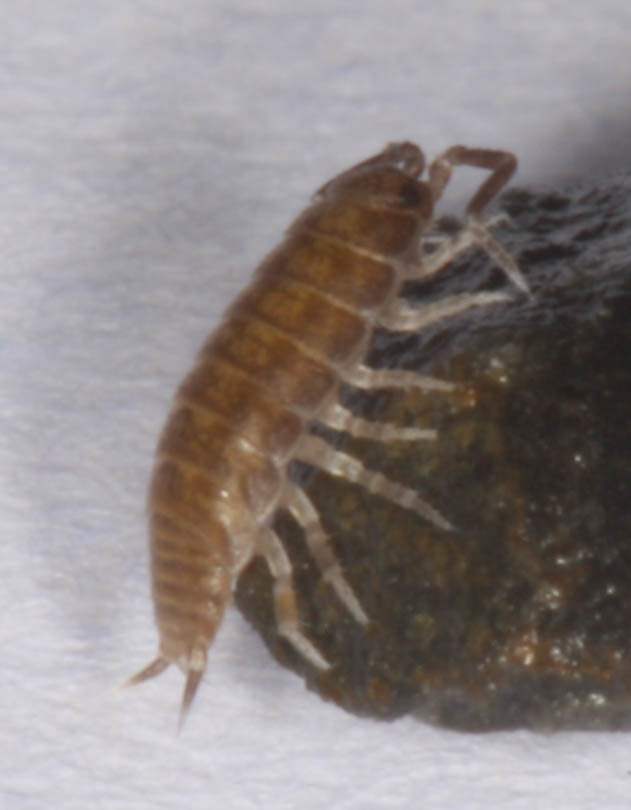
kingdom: Animalia
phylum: Arthropoda
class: Malacostraca
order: Isopoda
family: Halophilosciidae
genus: Littorophiloscia
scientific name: Littorophiloscia richardsonae
